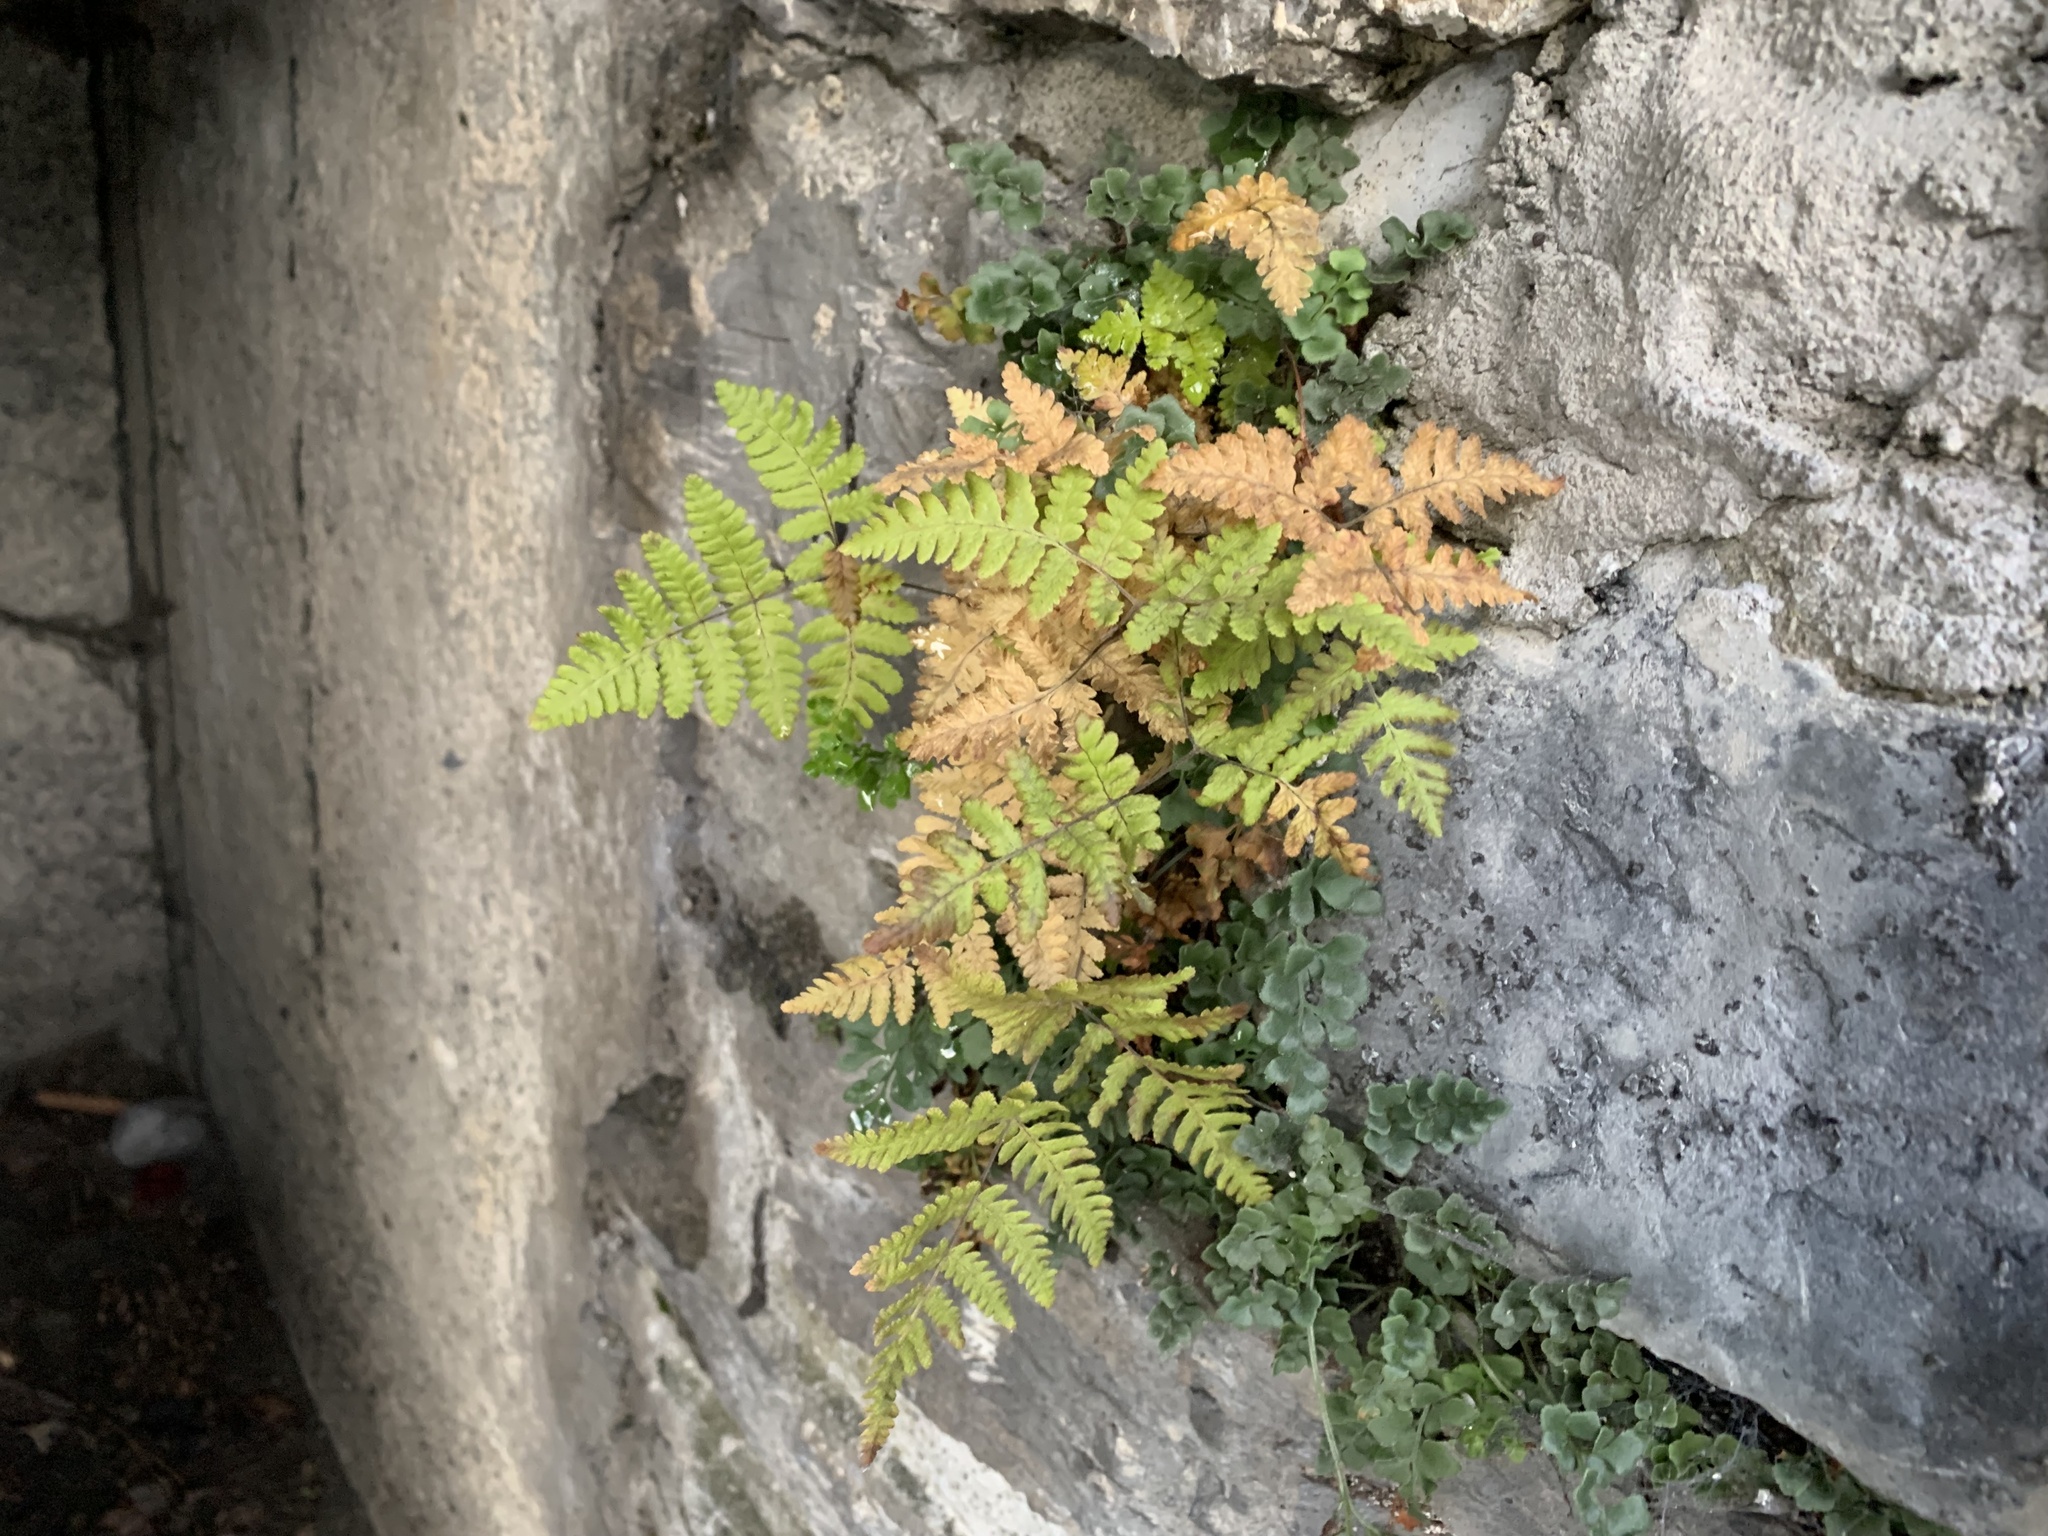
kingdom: Plantae
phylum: Tracheophyta
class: Polypodiopsida
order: Polypodiales
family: Cystopteridaceae
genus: Gymnocarpium
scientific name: Gymnocarpium robertianum
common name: Limestone fern
